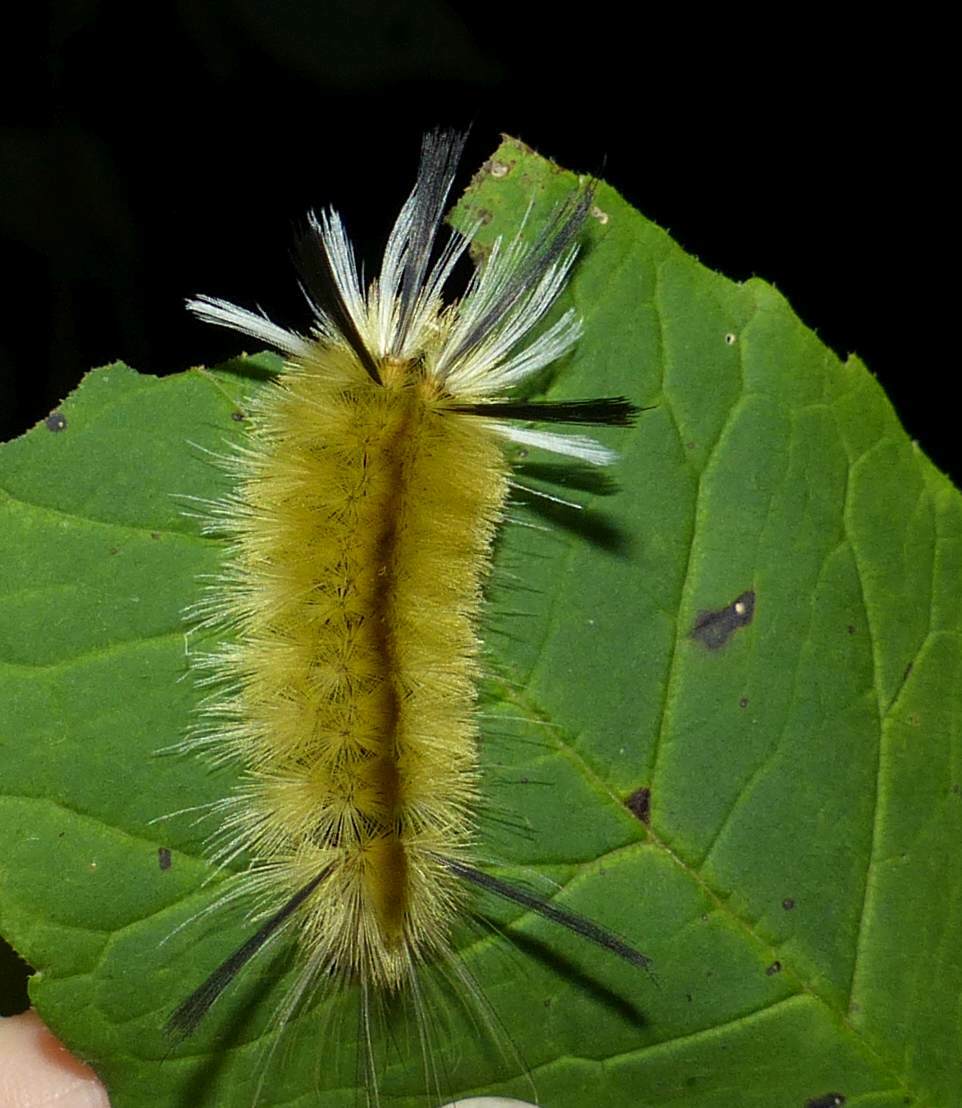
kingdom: Animalia
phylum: Arthropoda
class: Insecta
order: Lepidoptera
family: Erebidae
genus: Halysidota
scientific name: Halysidota tessellaris
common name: Banded tussock moth
